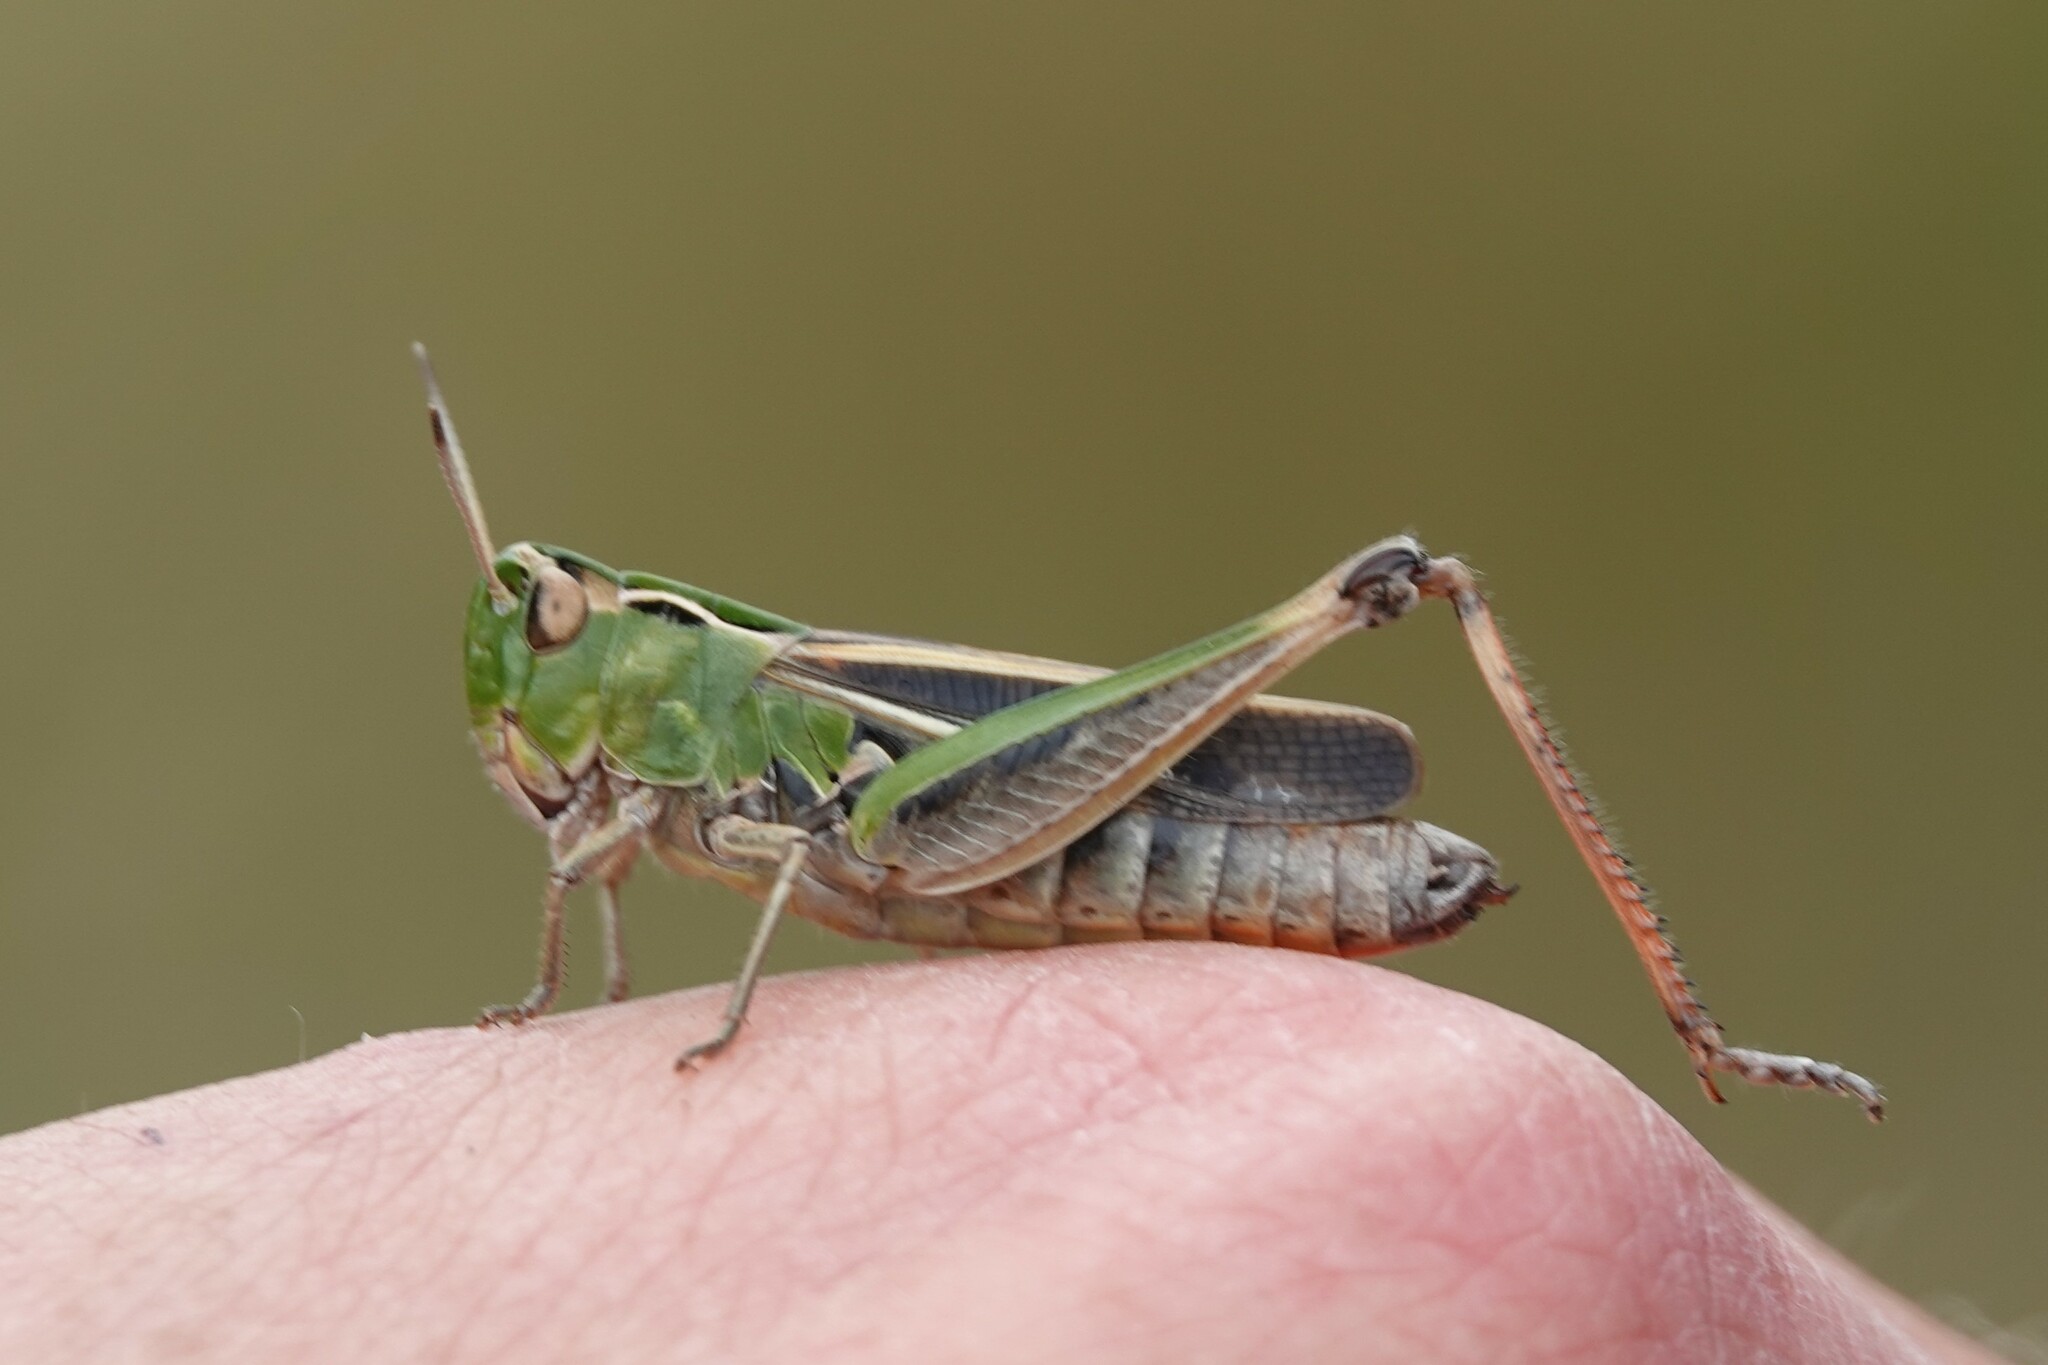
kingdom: Animalia
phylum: Arthropoda
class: Insecta
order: Orthoptera
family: Acrididae
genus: Stenobothrus
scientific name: Stenobothrus lineatus
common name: Stripe-winged grasshopper
